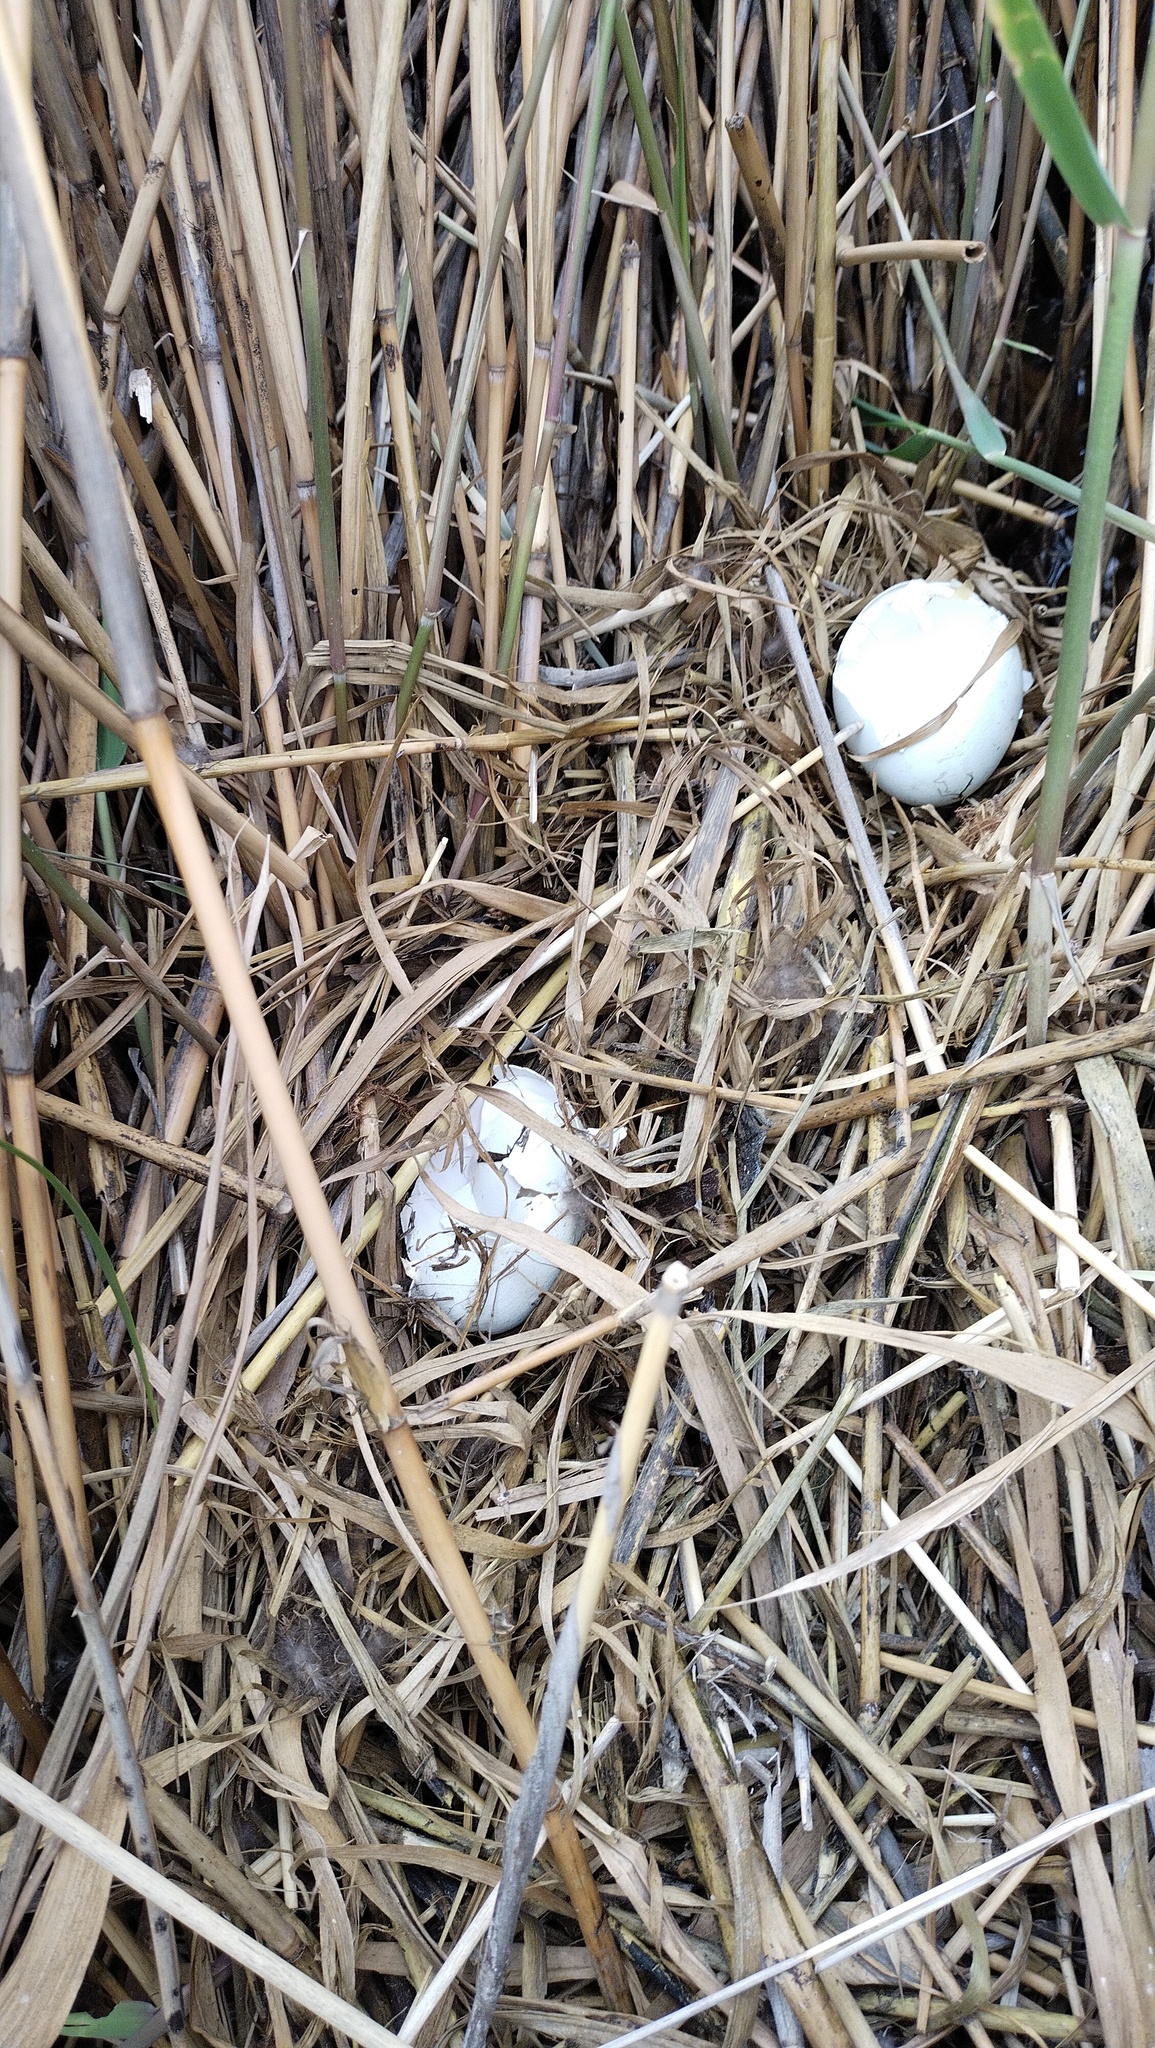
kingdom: Animalia
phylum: Chordata
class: Aves
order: Anseriformes
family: Anatidae
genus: Oxyura
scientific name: Oxyura leucocephala
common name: White-headed duck
